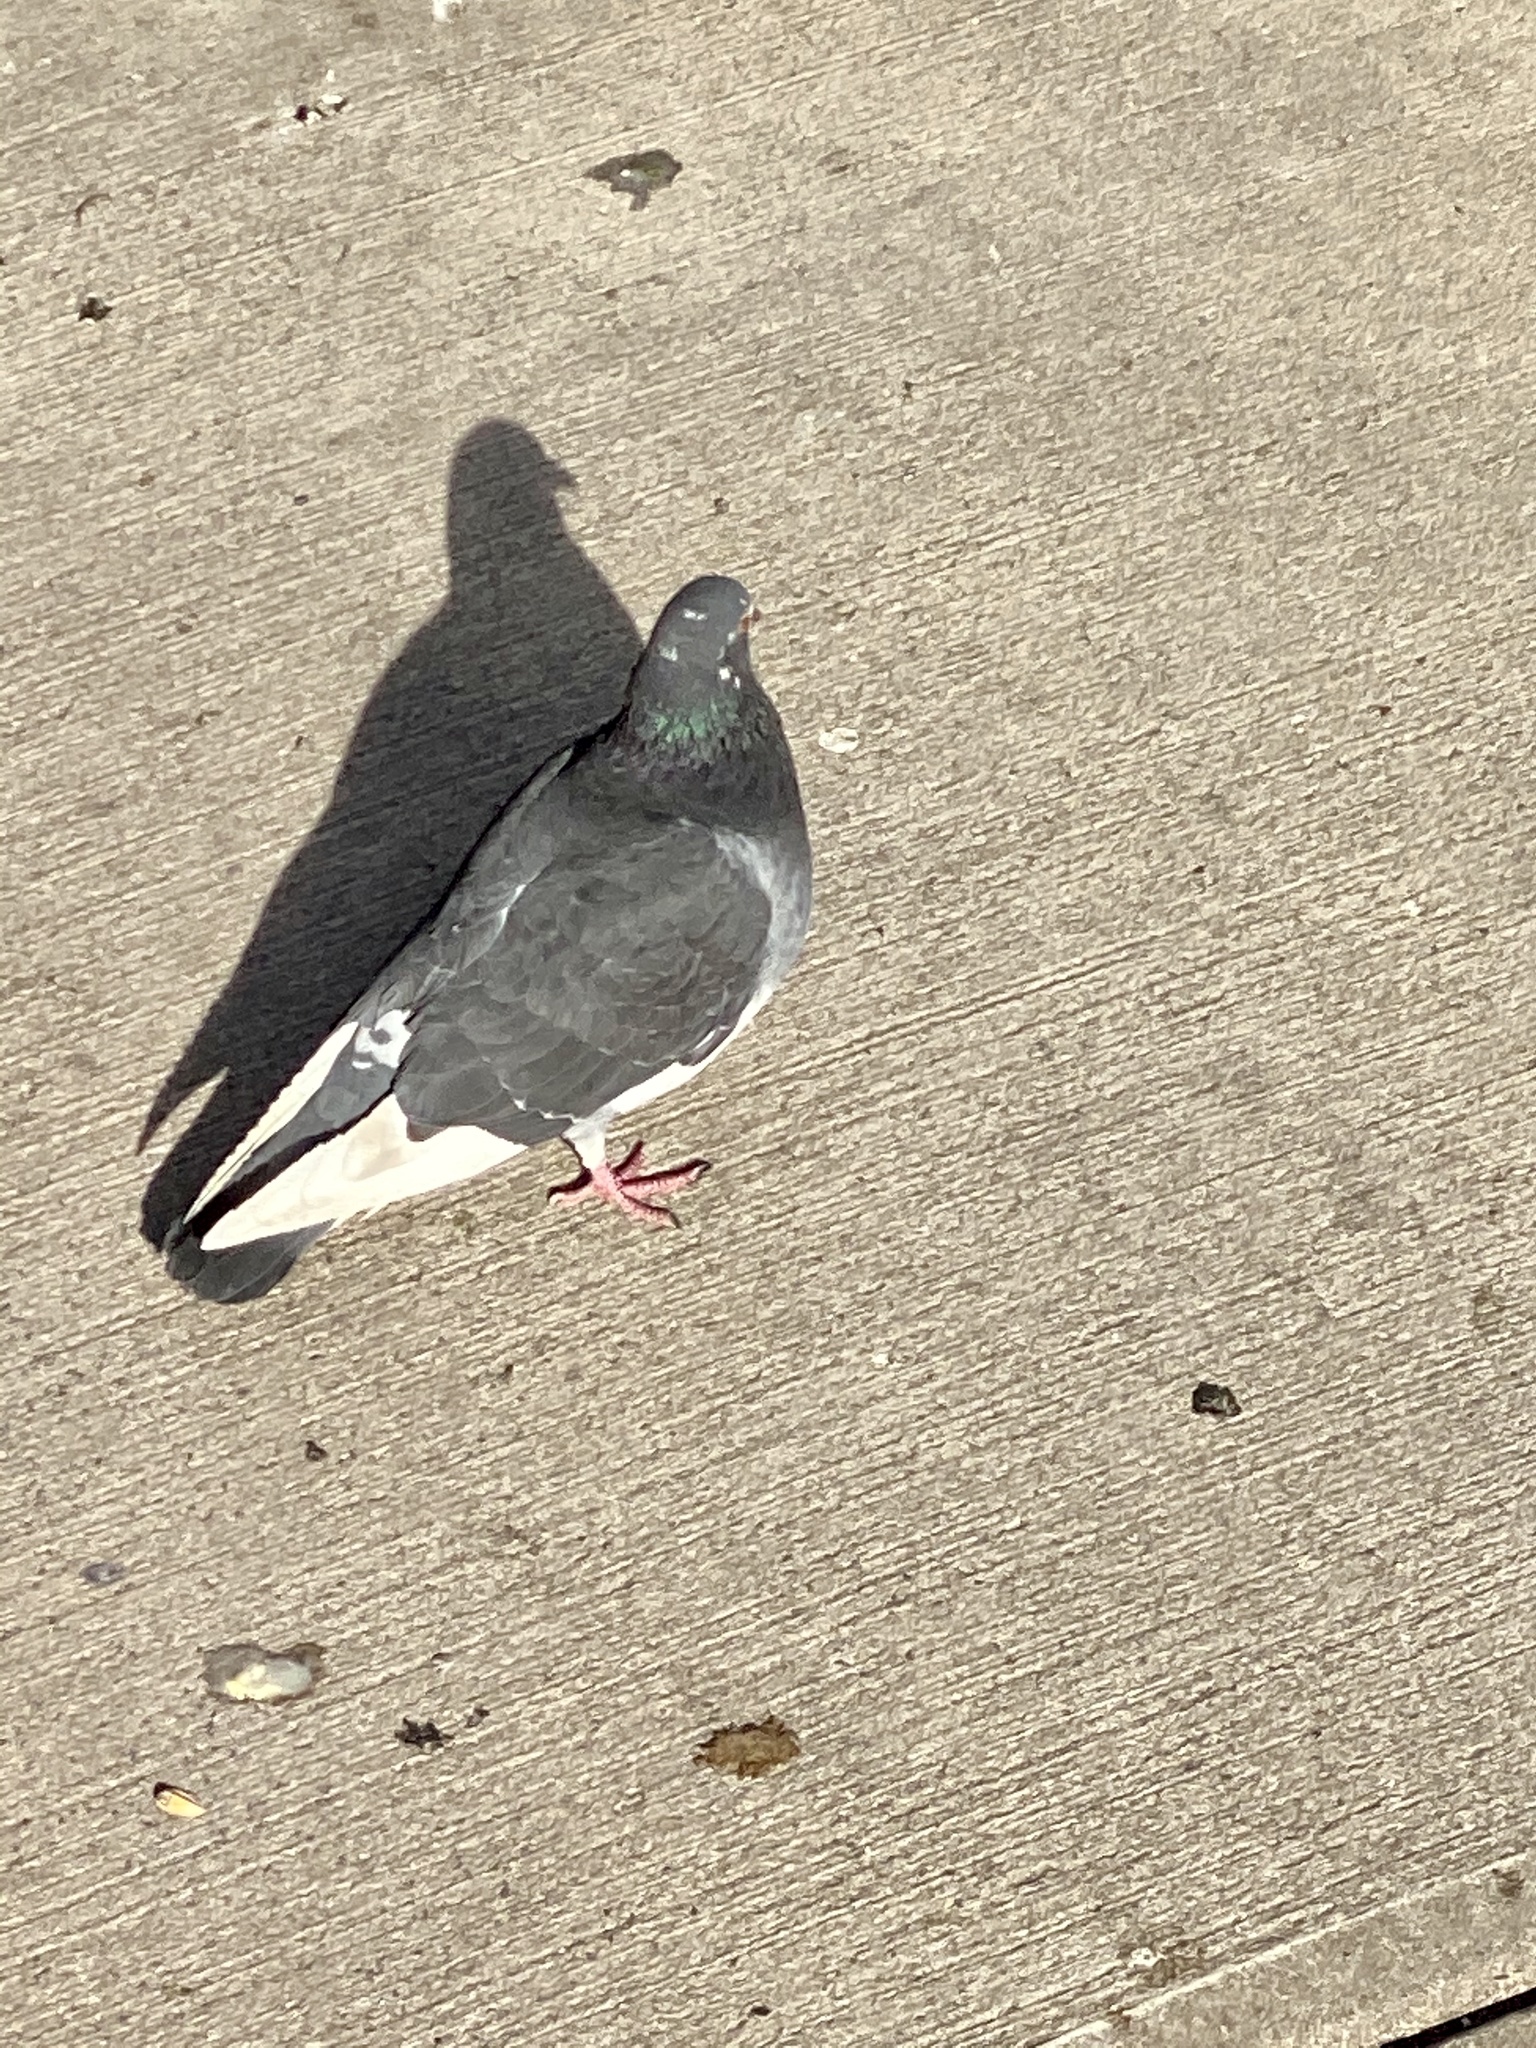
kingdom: Animalia
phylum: Chordata
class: Aves
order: Columbiformes
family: Columbidae
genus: Columba
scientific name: Columba livia
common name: Rock pigeon
